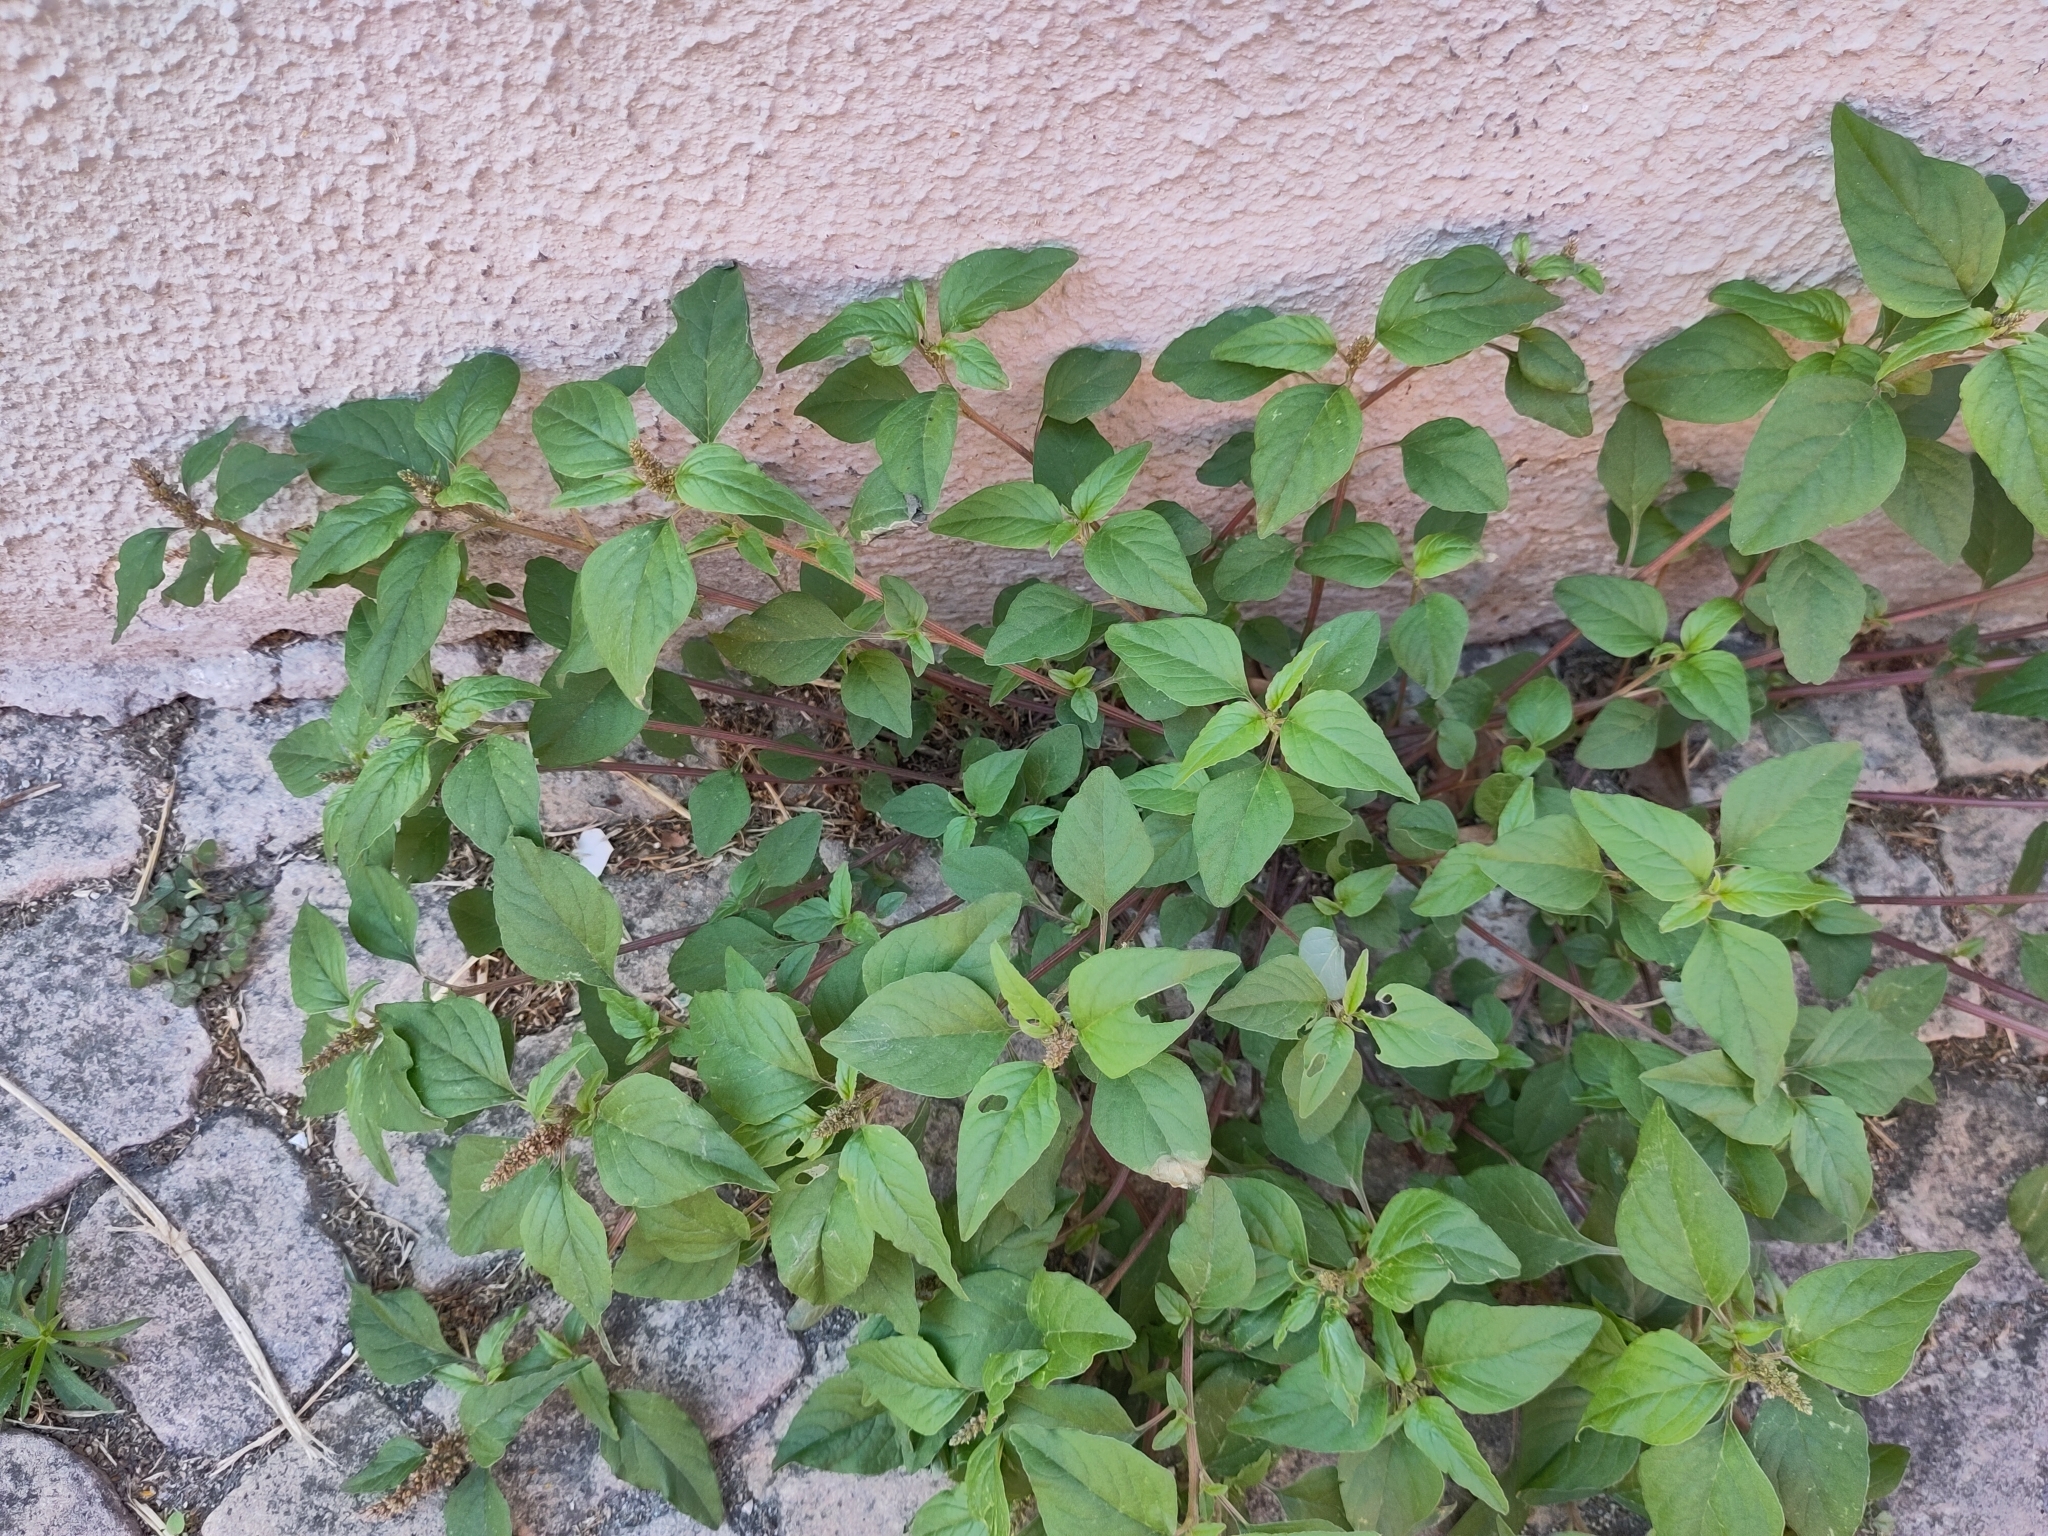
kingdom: Plantae
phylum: Tracheophyta
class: Magnoliopsida
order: Caryophyllales
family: Amaranthaceae
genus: Amaranthus
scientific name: Amaranthus deflexus
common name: Perennial pigweed
